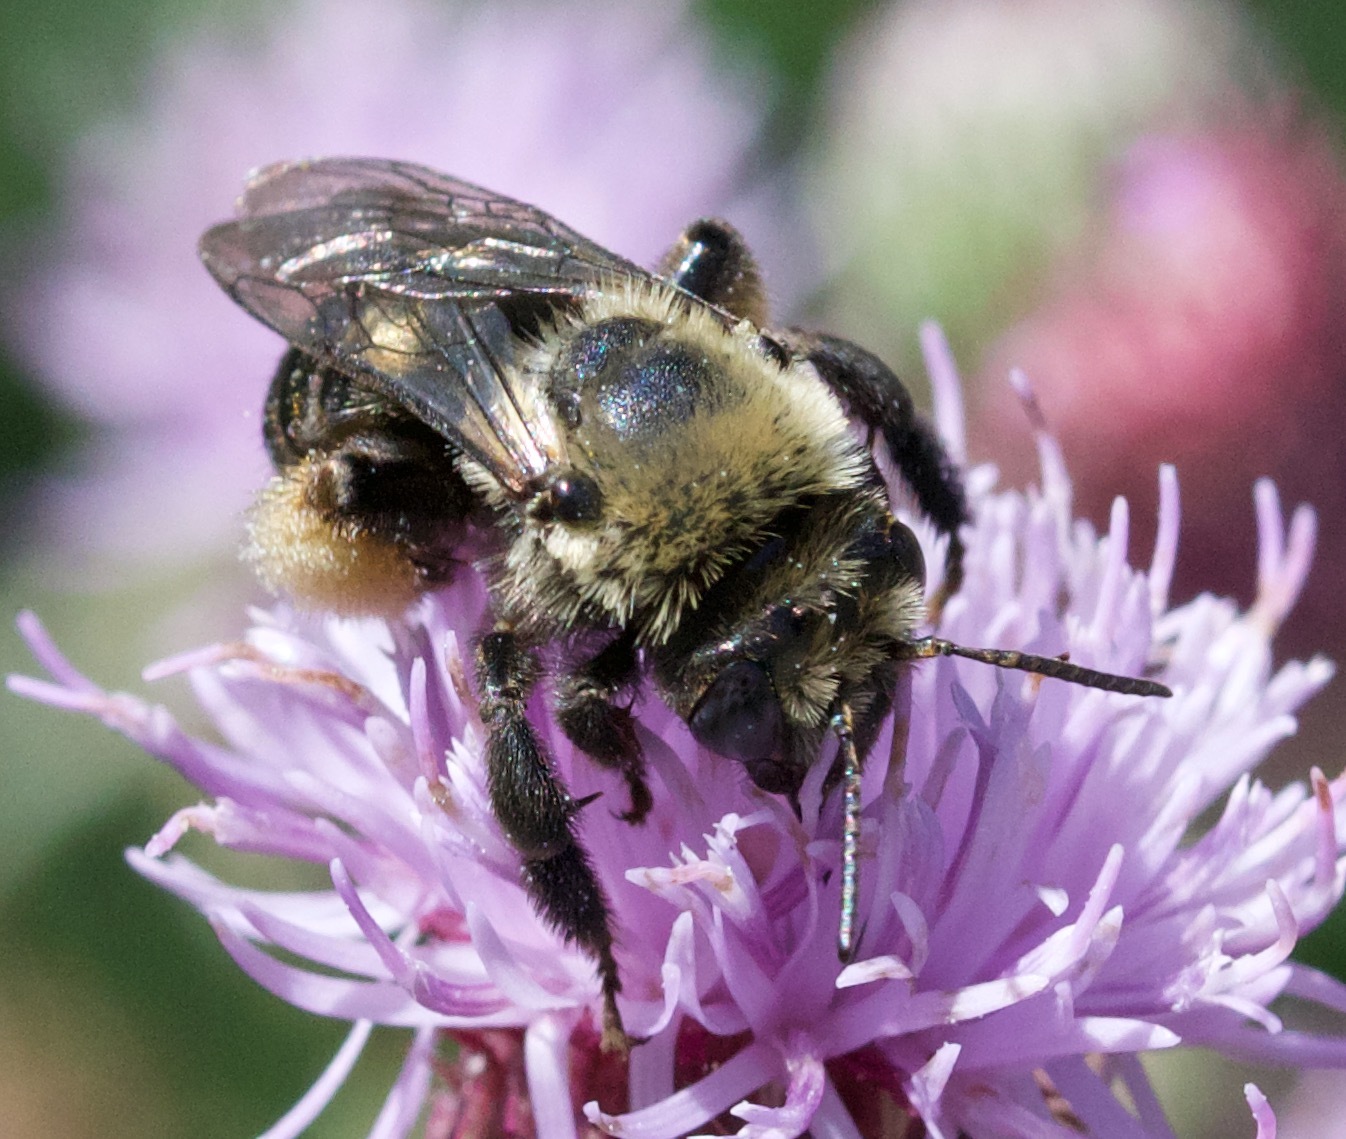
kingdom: Animalia
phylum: Arthropoda
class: Insecta
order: Hymenoptera
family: Apidae
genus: Melissodes
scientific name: Melissodes desponsus
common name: Thistle long-horned bee
